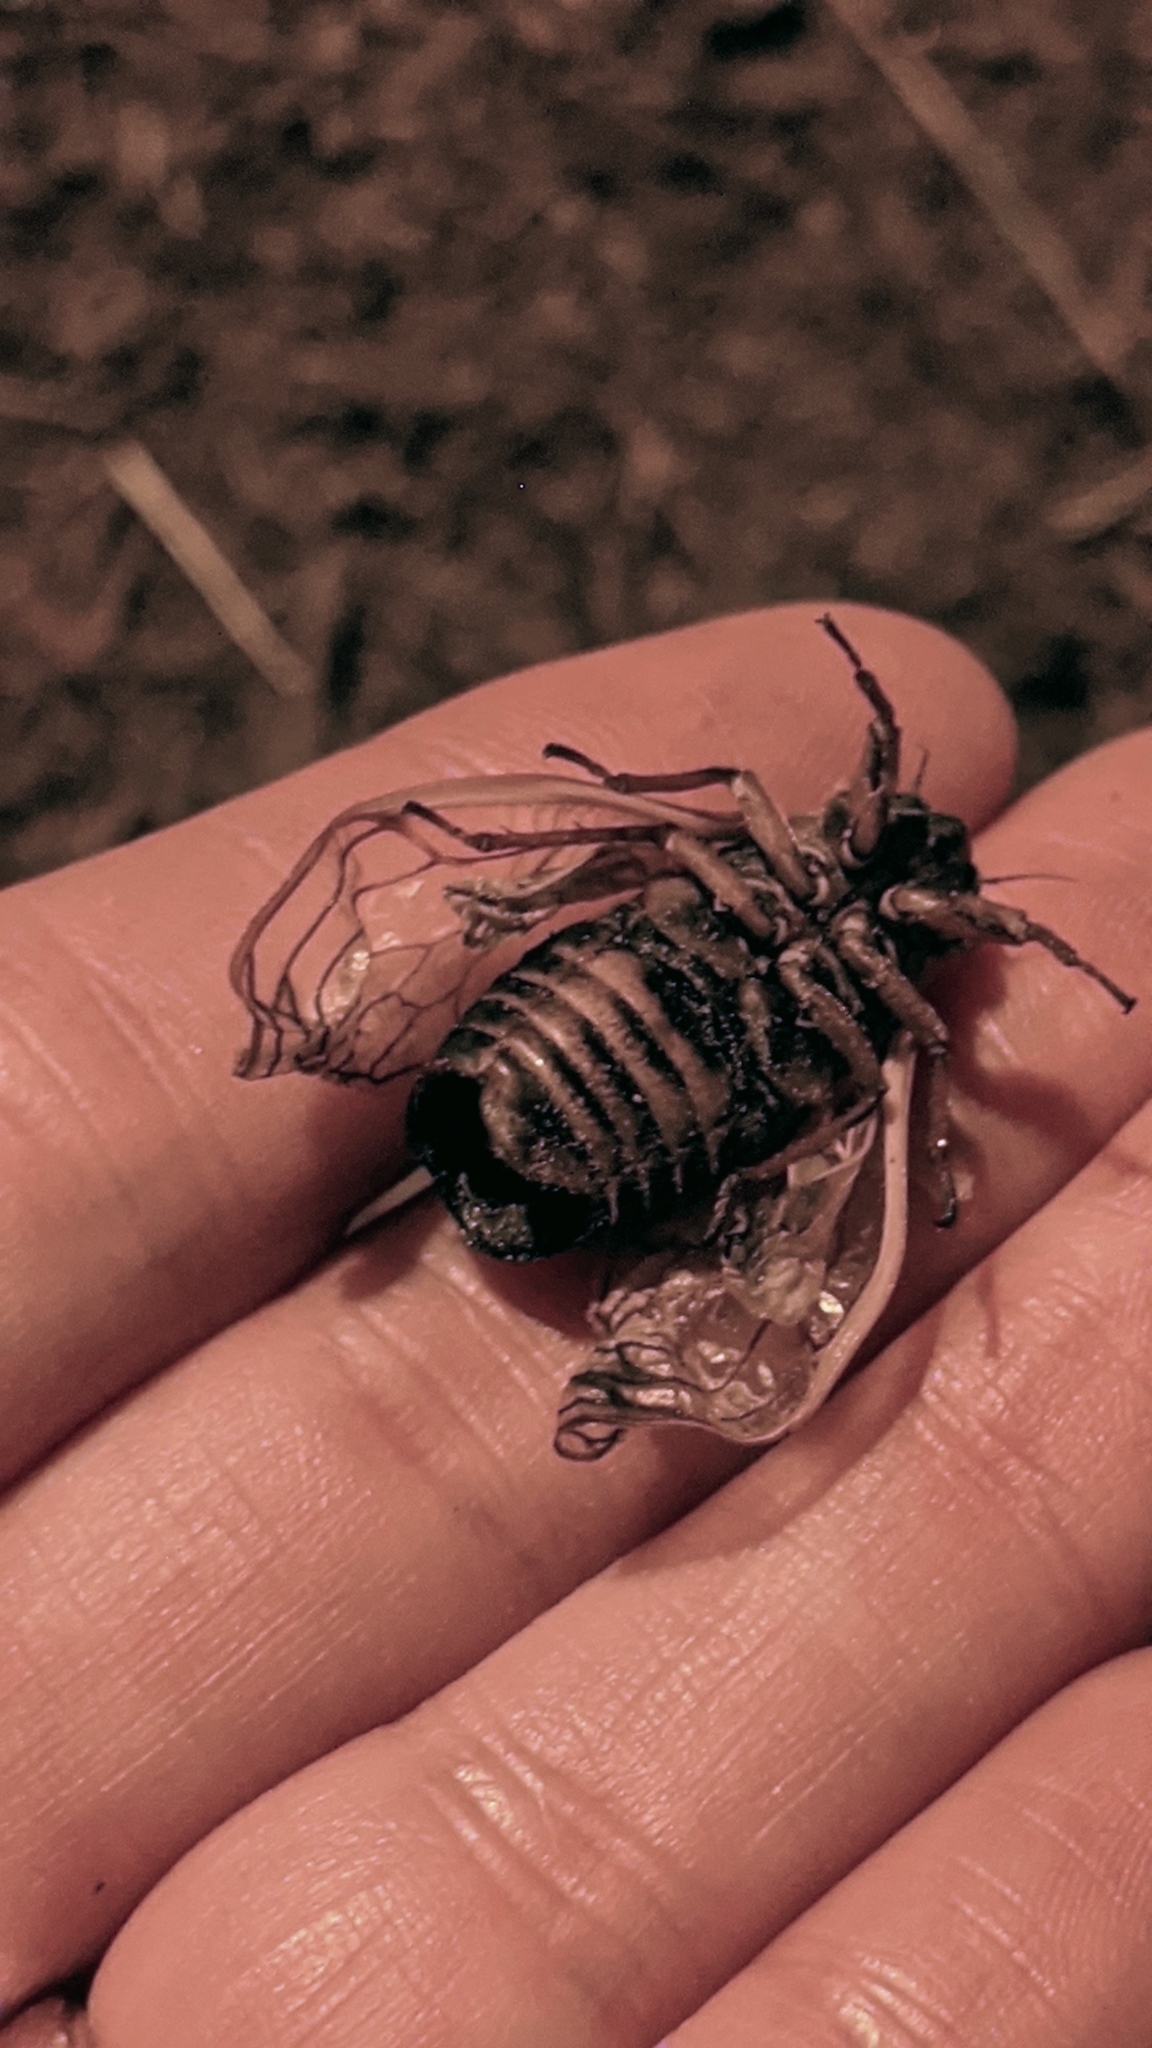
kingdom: Animalia
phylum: Arthropoda
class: Insecta
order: Hemiptera
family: Cicadidae
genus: Magicicada
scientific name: Magicicada septendecim
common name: Periodical cicada
